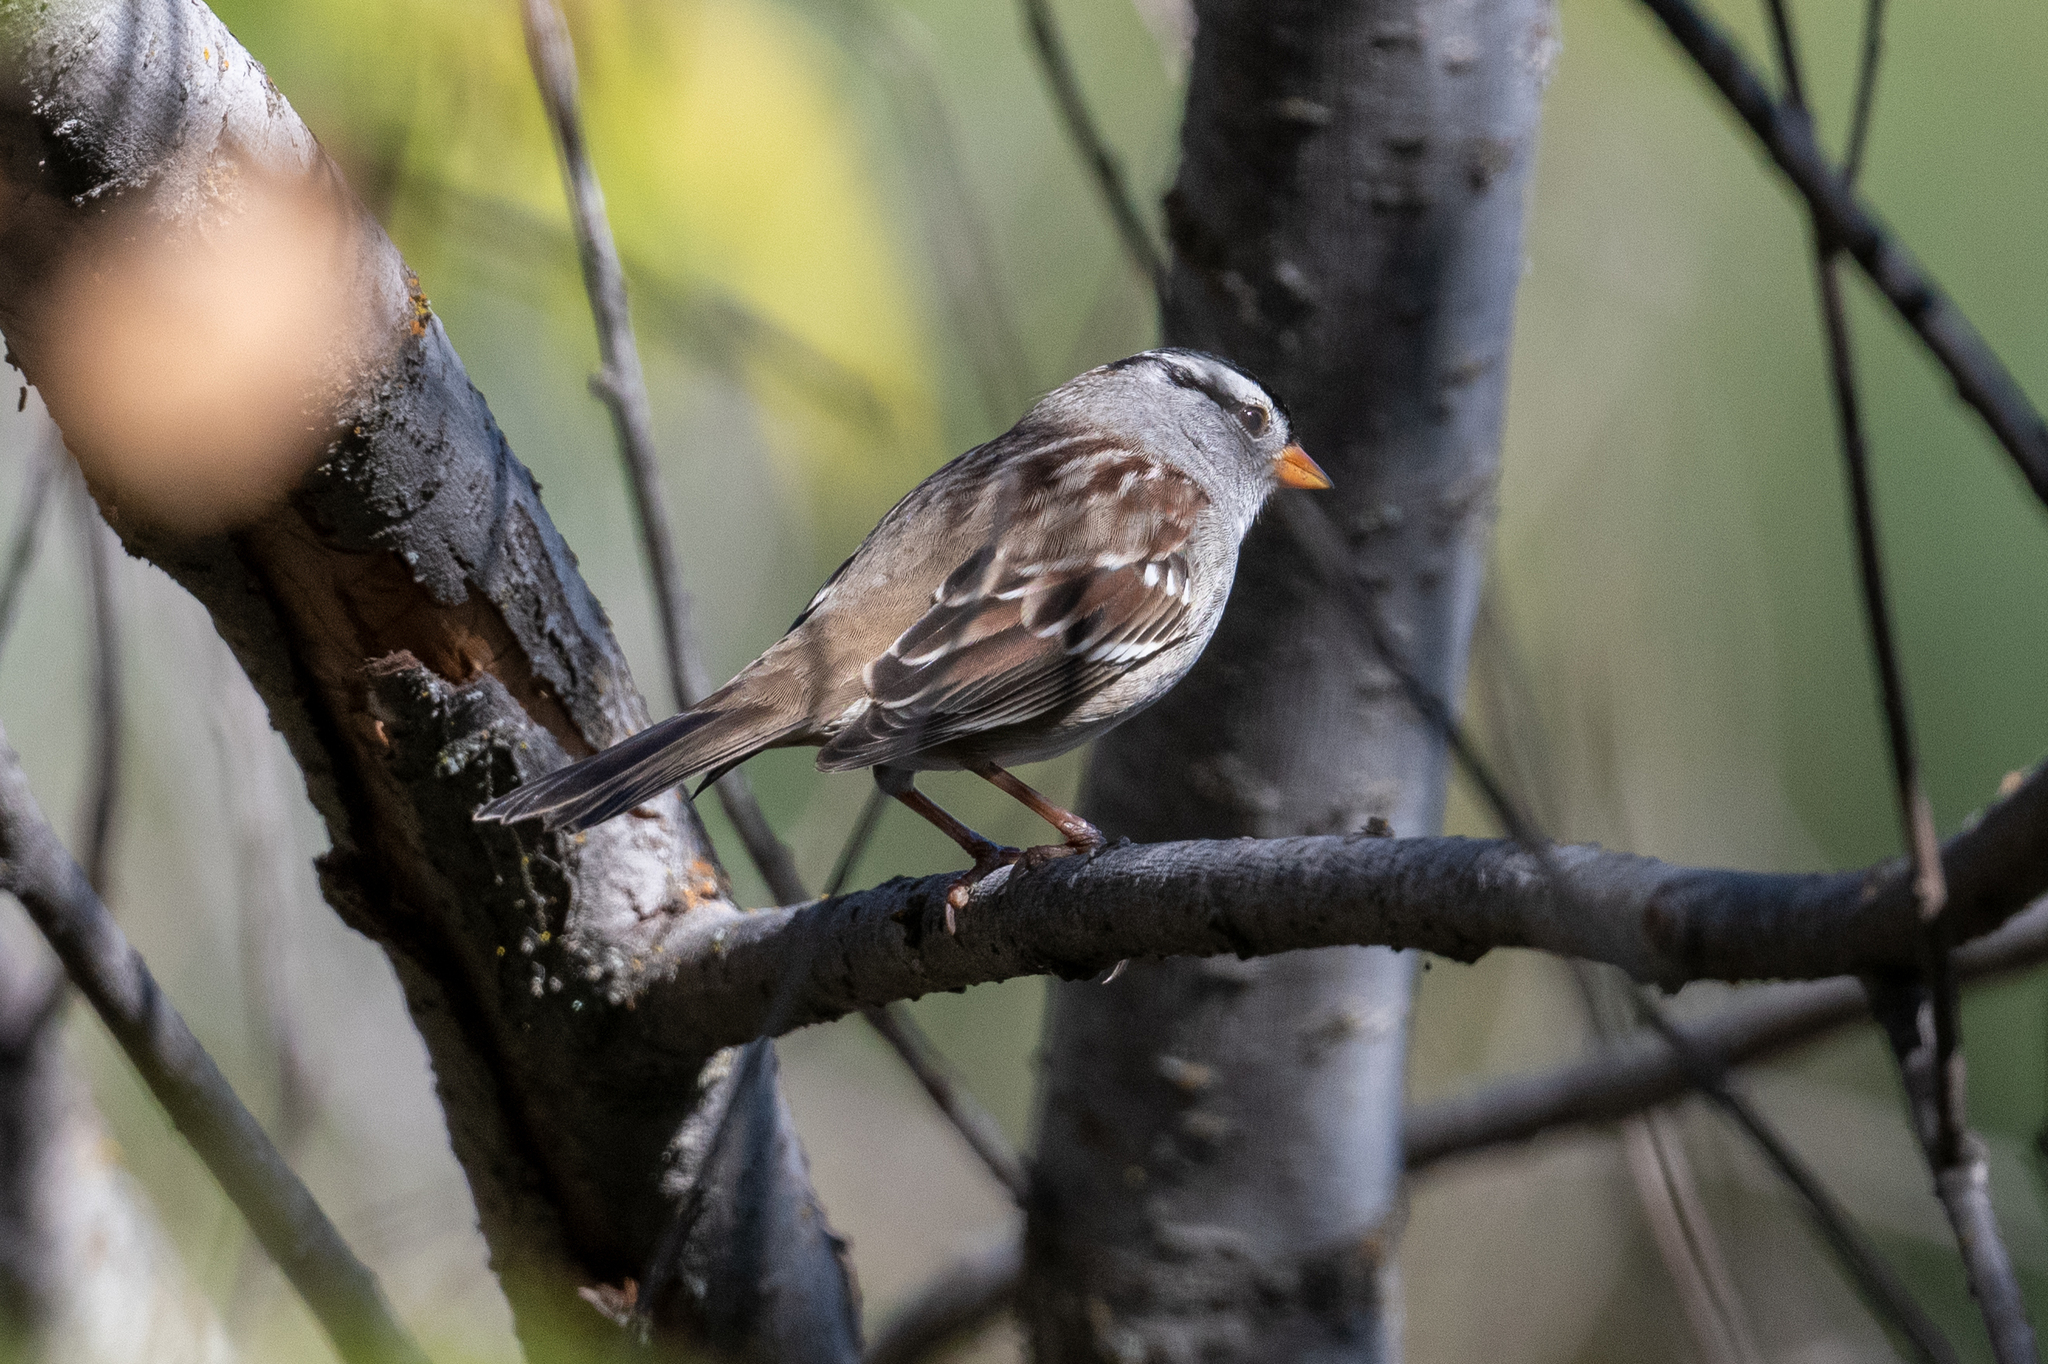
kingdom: Animalia
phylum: Chordata
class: Aves
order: Passeriformes
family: Passerellidae
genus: Zonotrichia
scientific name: Zonotrichia leucophrys
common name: White-crowned sparrow
